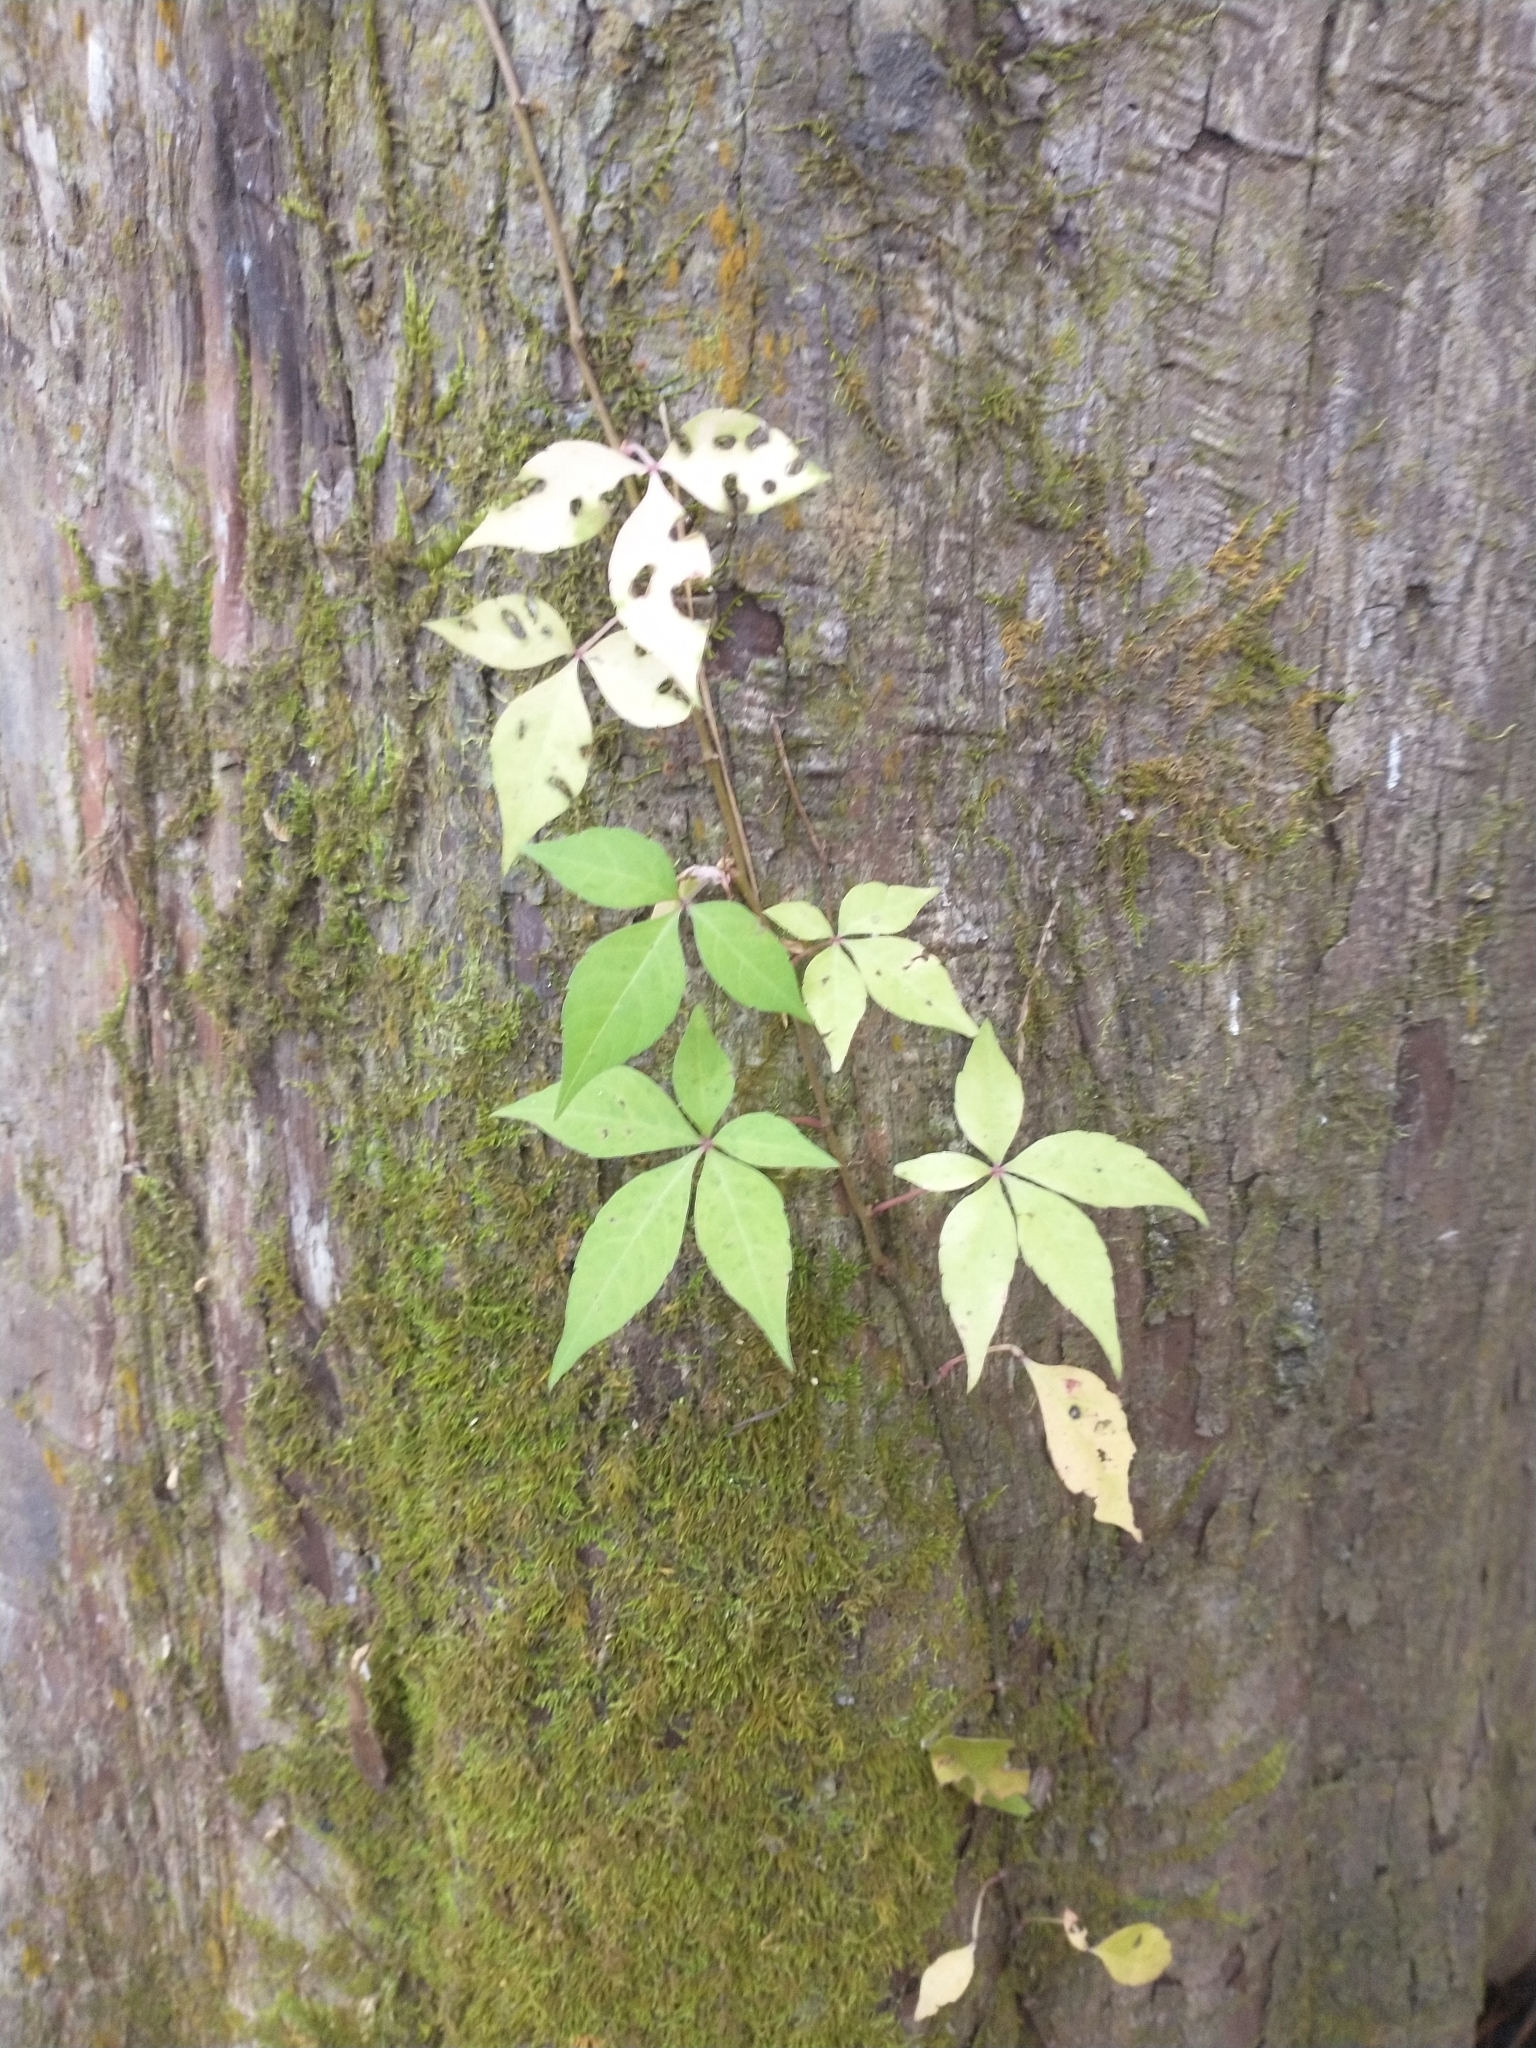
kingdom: Plantae
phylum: Tracheophyta
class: Magnoliopsida
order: Vitales
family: Vitaceae
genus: Parthenocissus
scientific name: Parthenocissus quinquefolia
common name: Virginia-creeper
